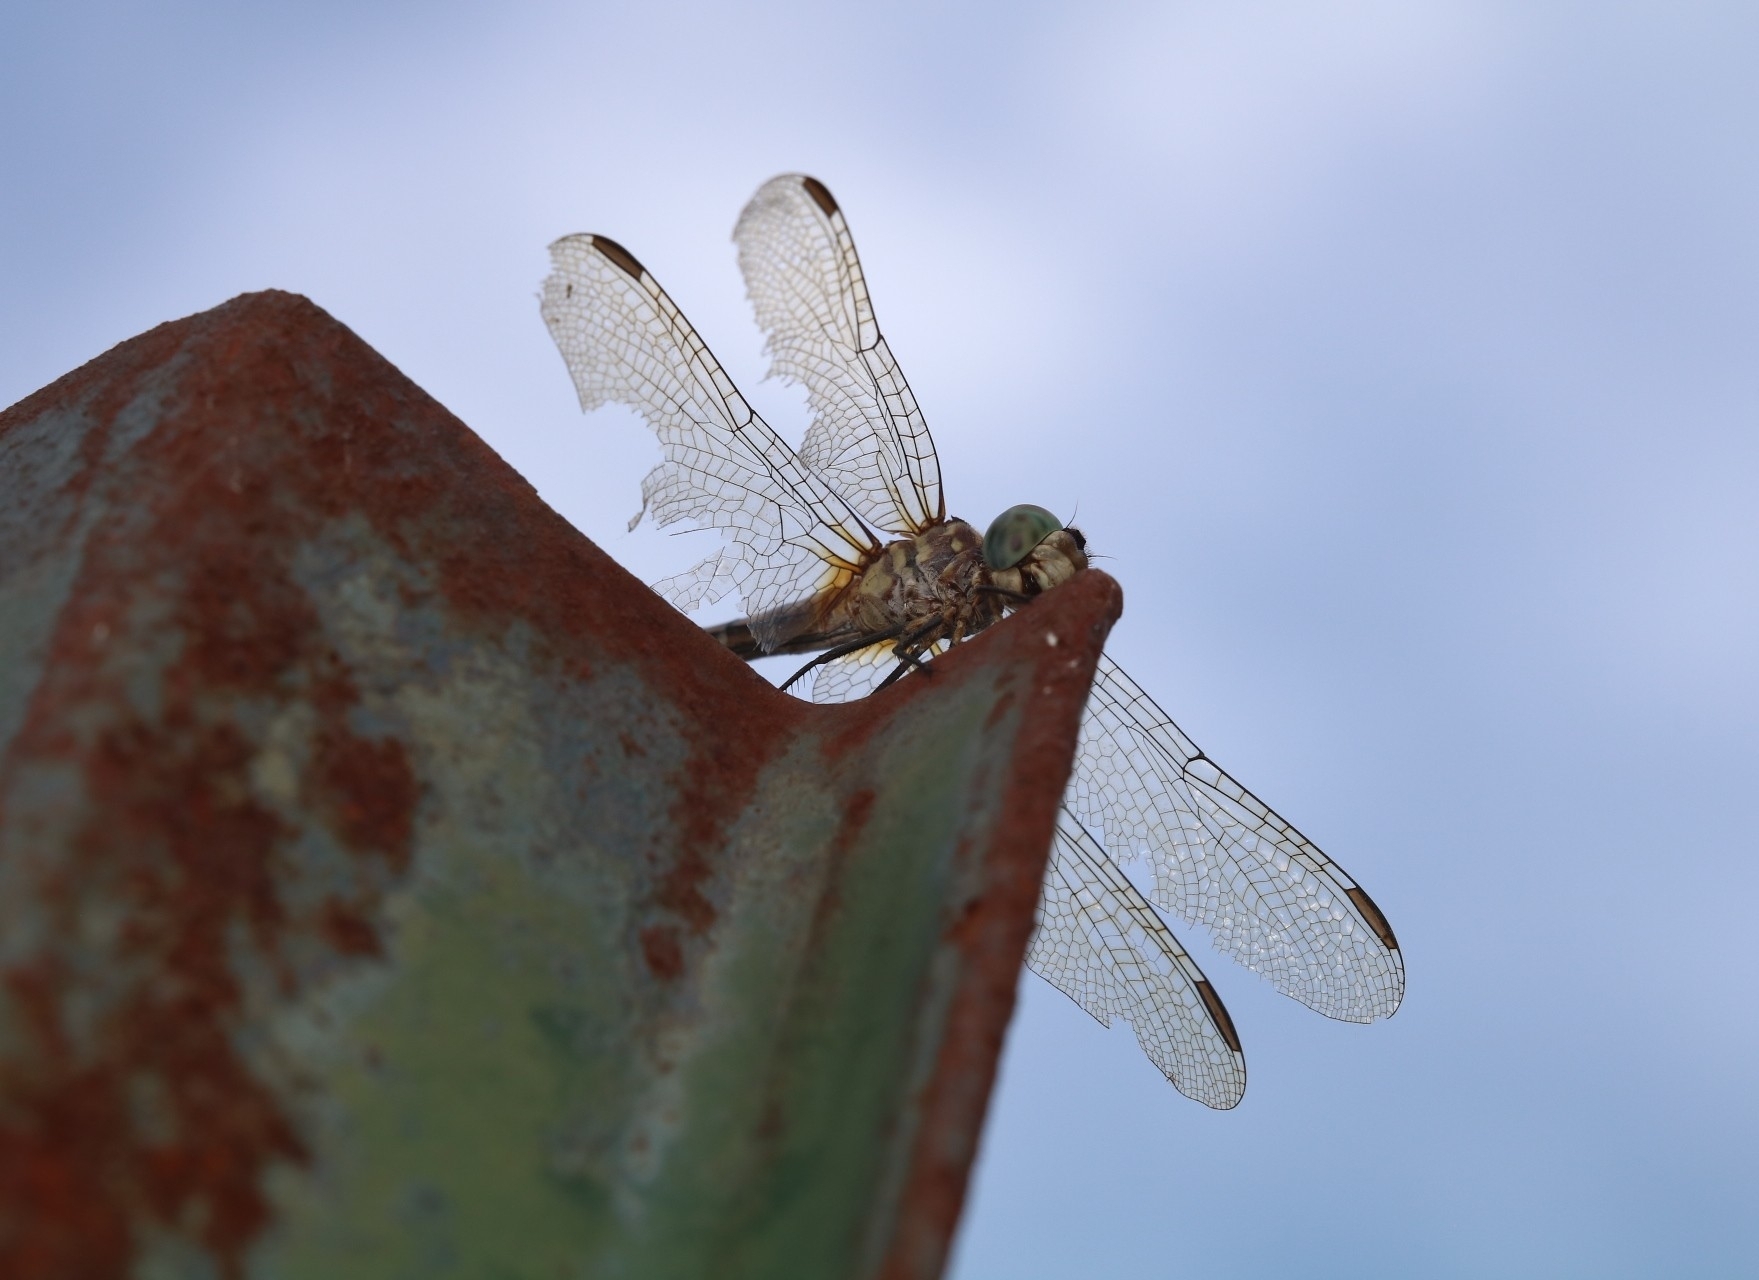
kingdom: Animalia
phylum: Arthropoda
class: Insecta
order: Odonata
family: Libellulidae
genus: Pachydiplax
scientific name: Pachydiplax longipennis
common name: Blue dasher
